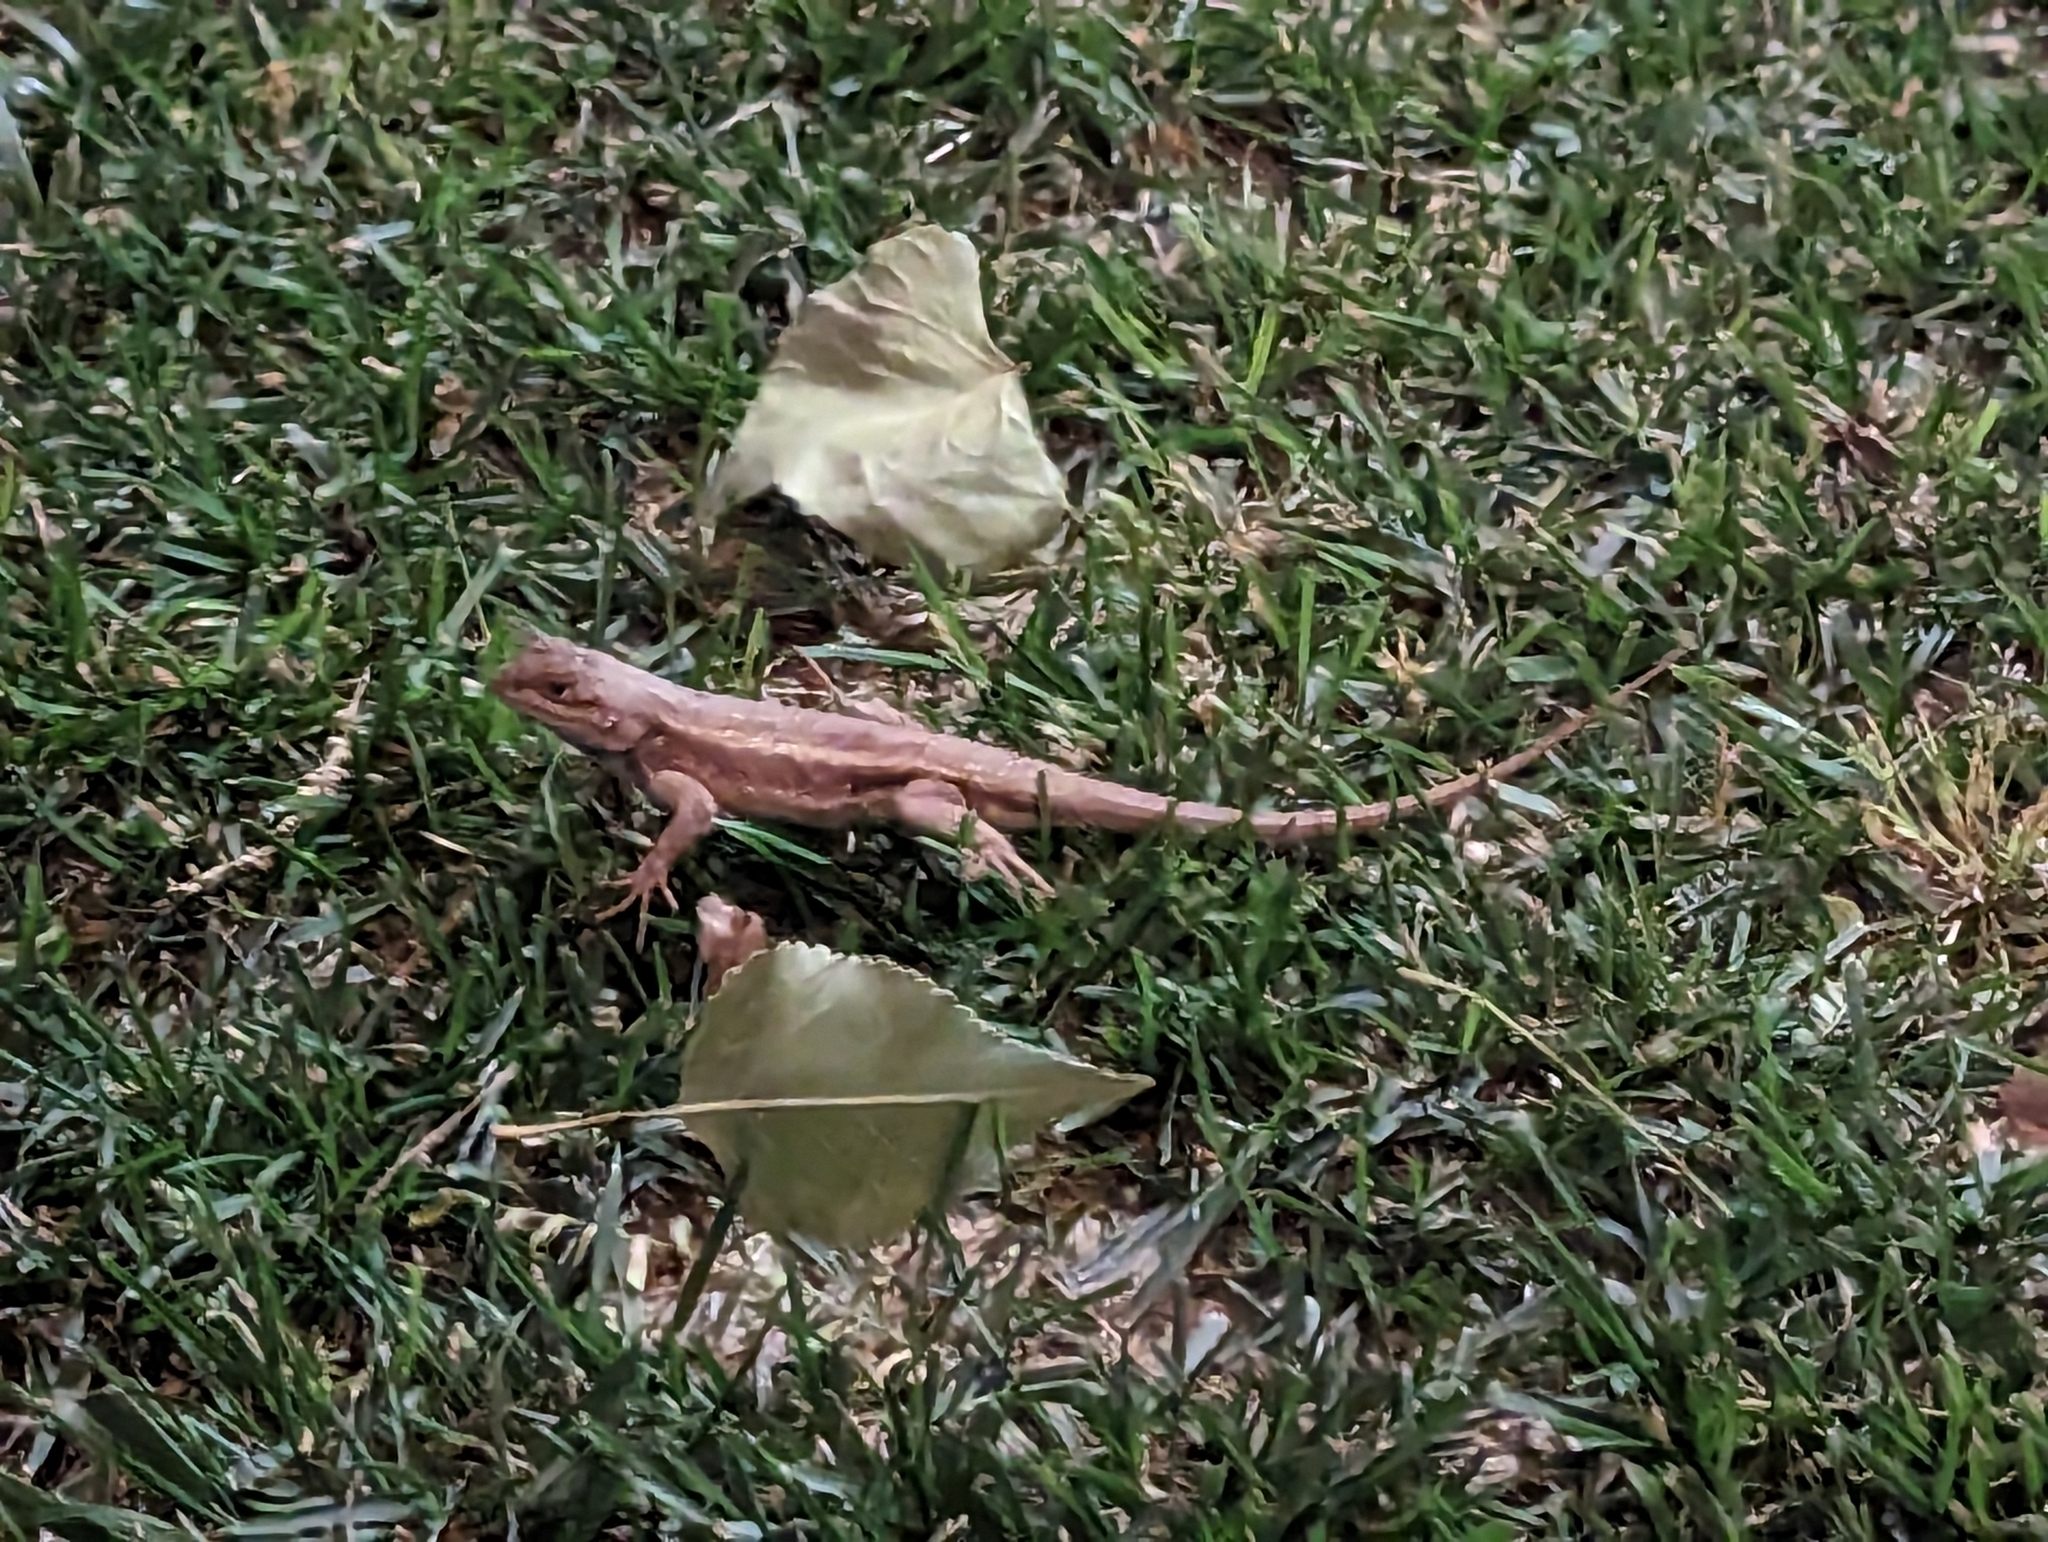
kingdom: Animalia
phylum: Chordata
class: Squamata
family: Phrynosomatidae
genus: Sceloporus
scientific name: Sceloporus tristichus
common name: Plateau fence lizard
